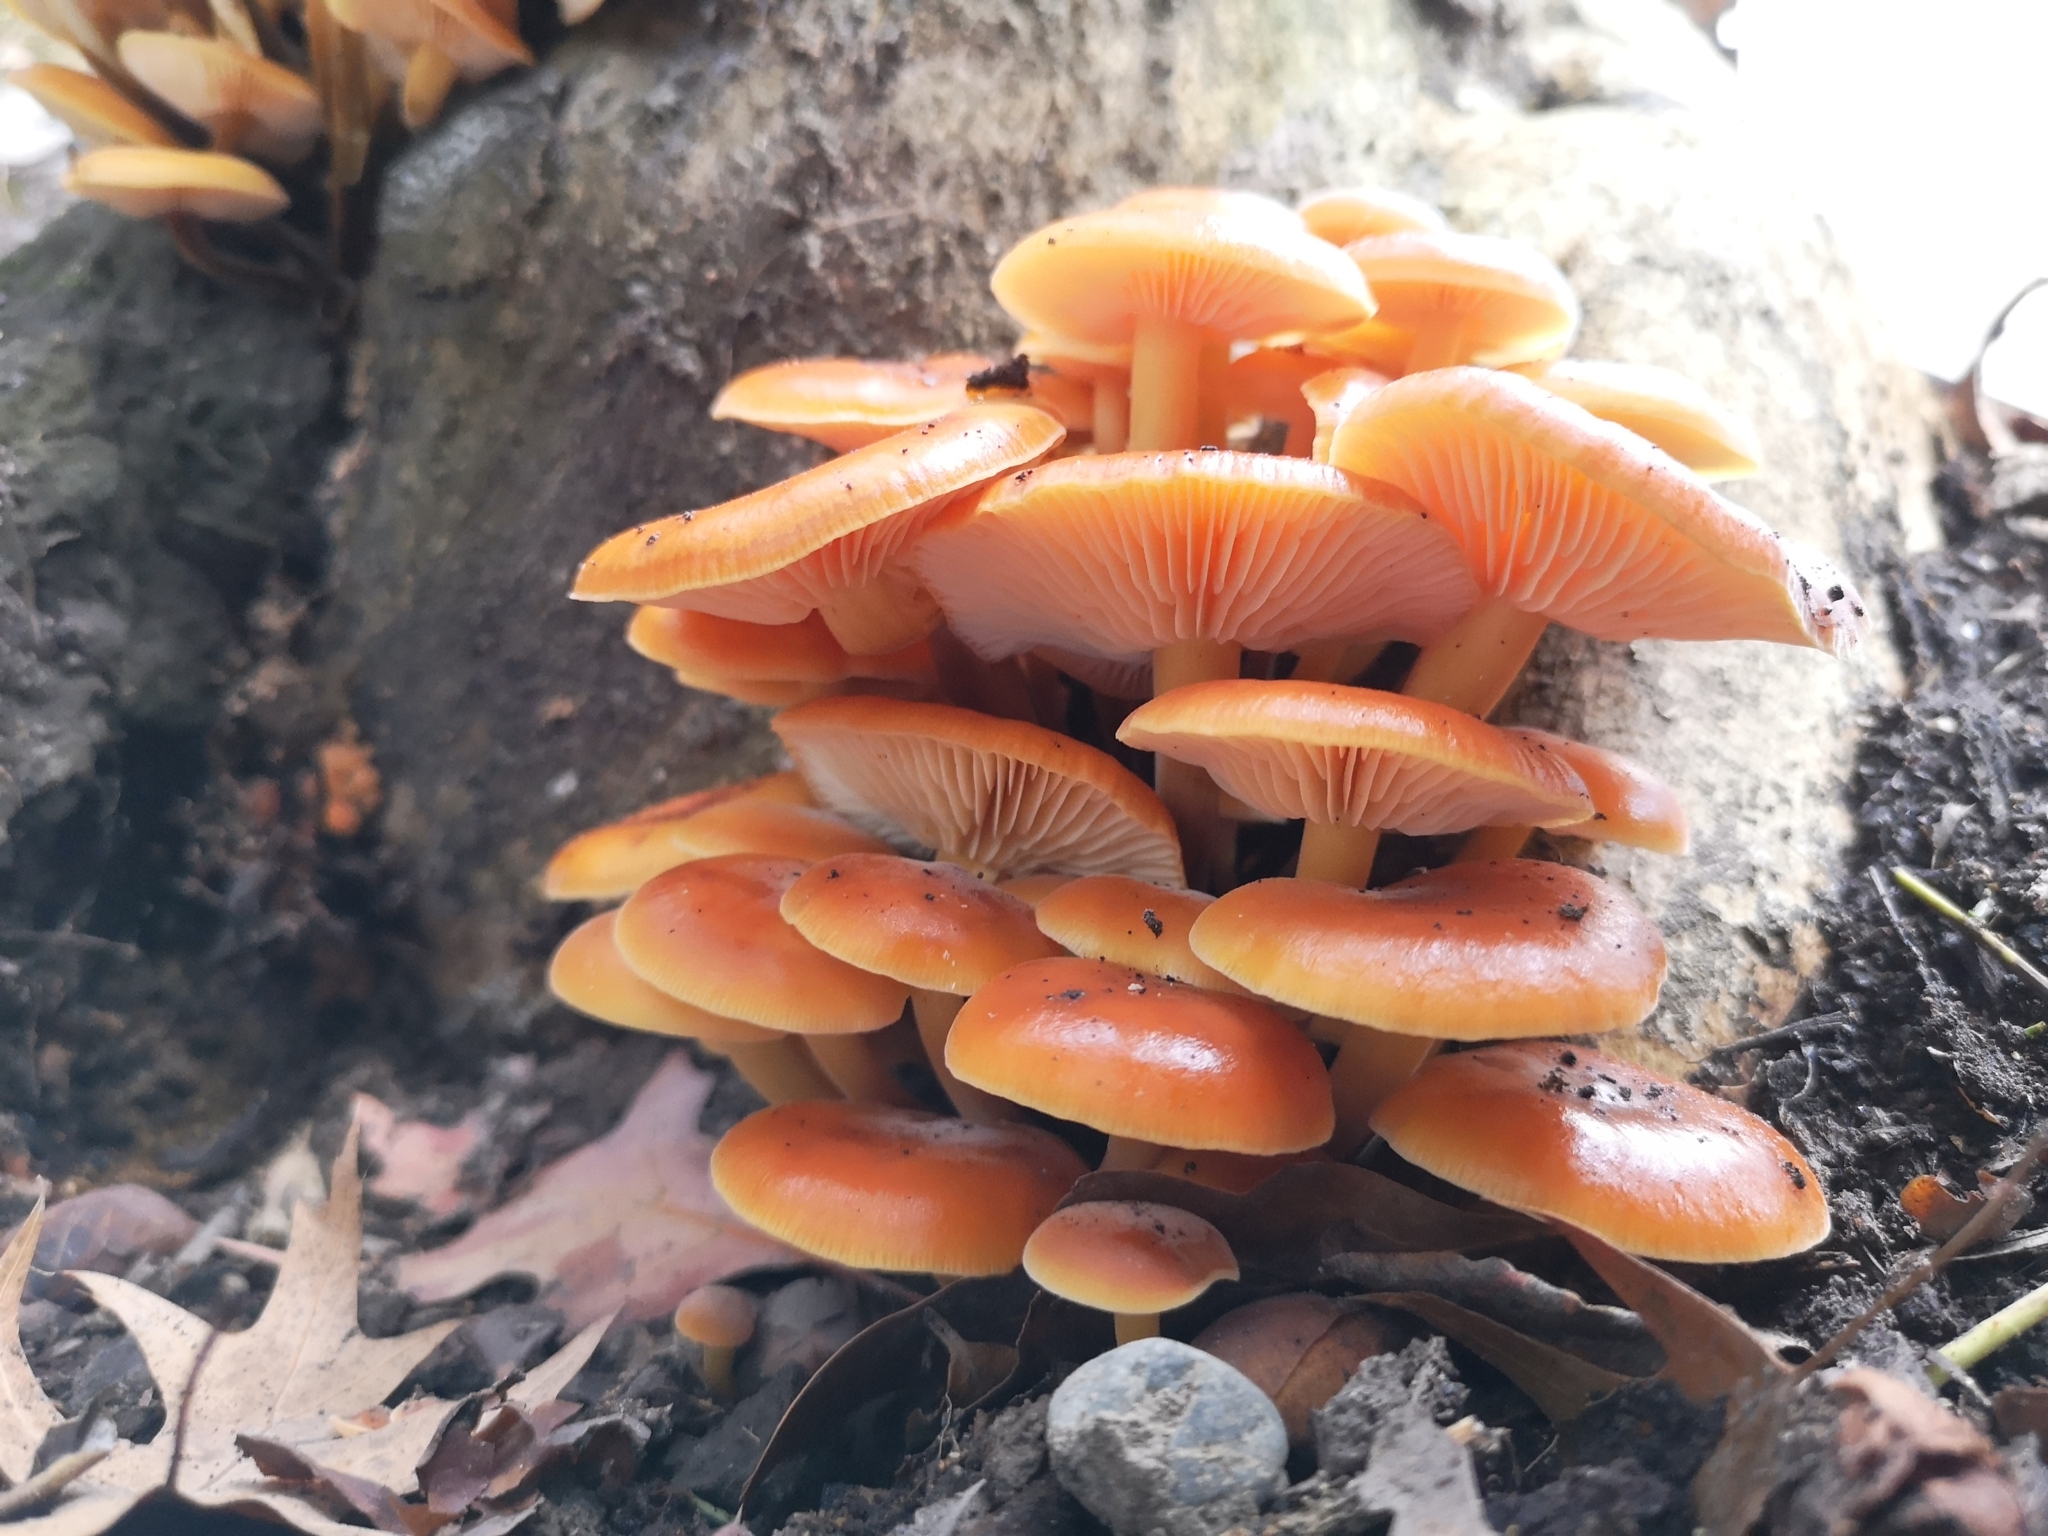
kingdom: Fungi
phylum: Basidiomycota
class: Agaricomycetes
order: Agaricales
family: Physalacriaceae
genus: Flammulina
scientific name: Flammulina velutipes
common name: Velvet shank
